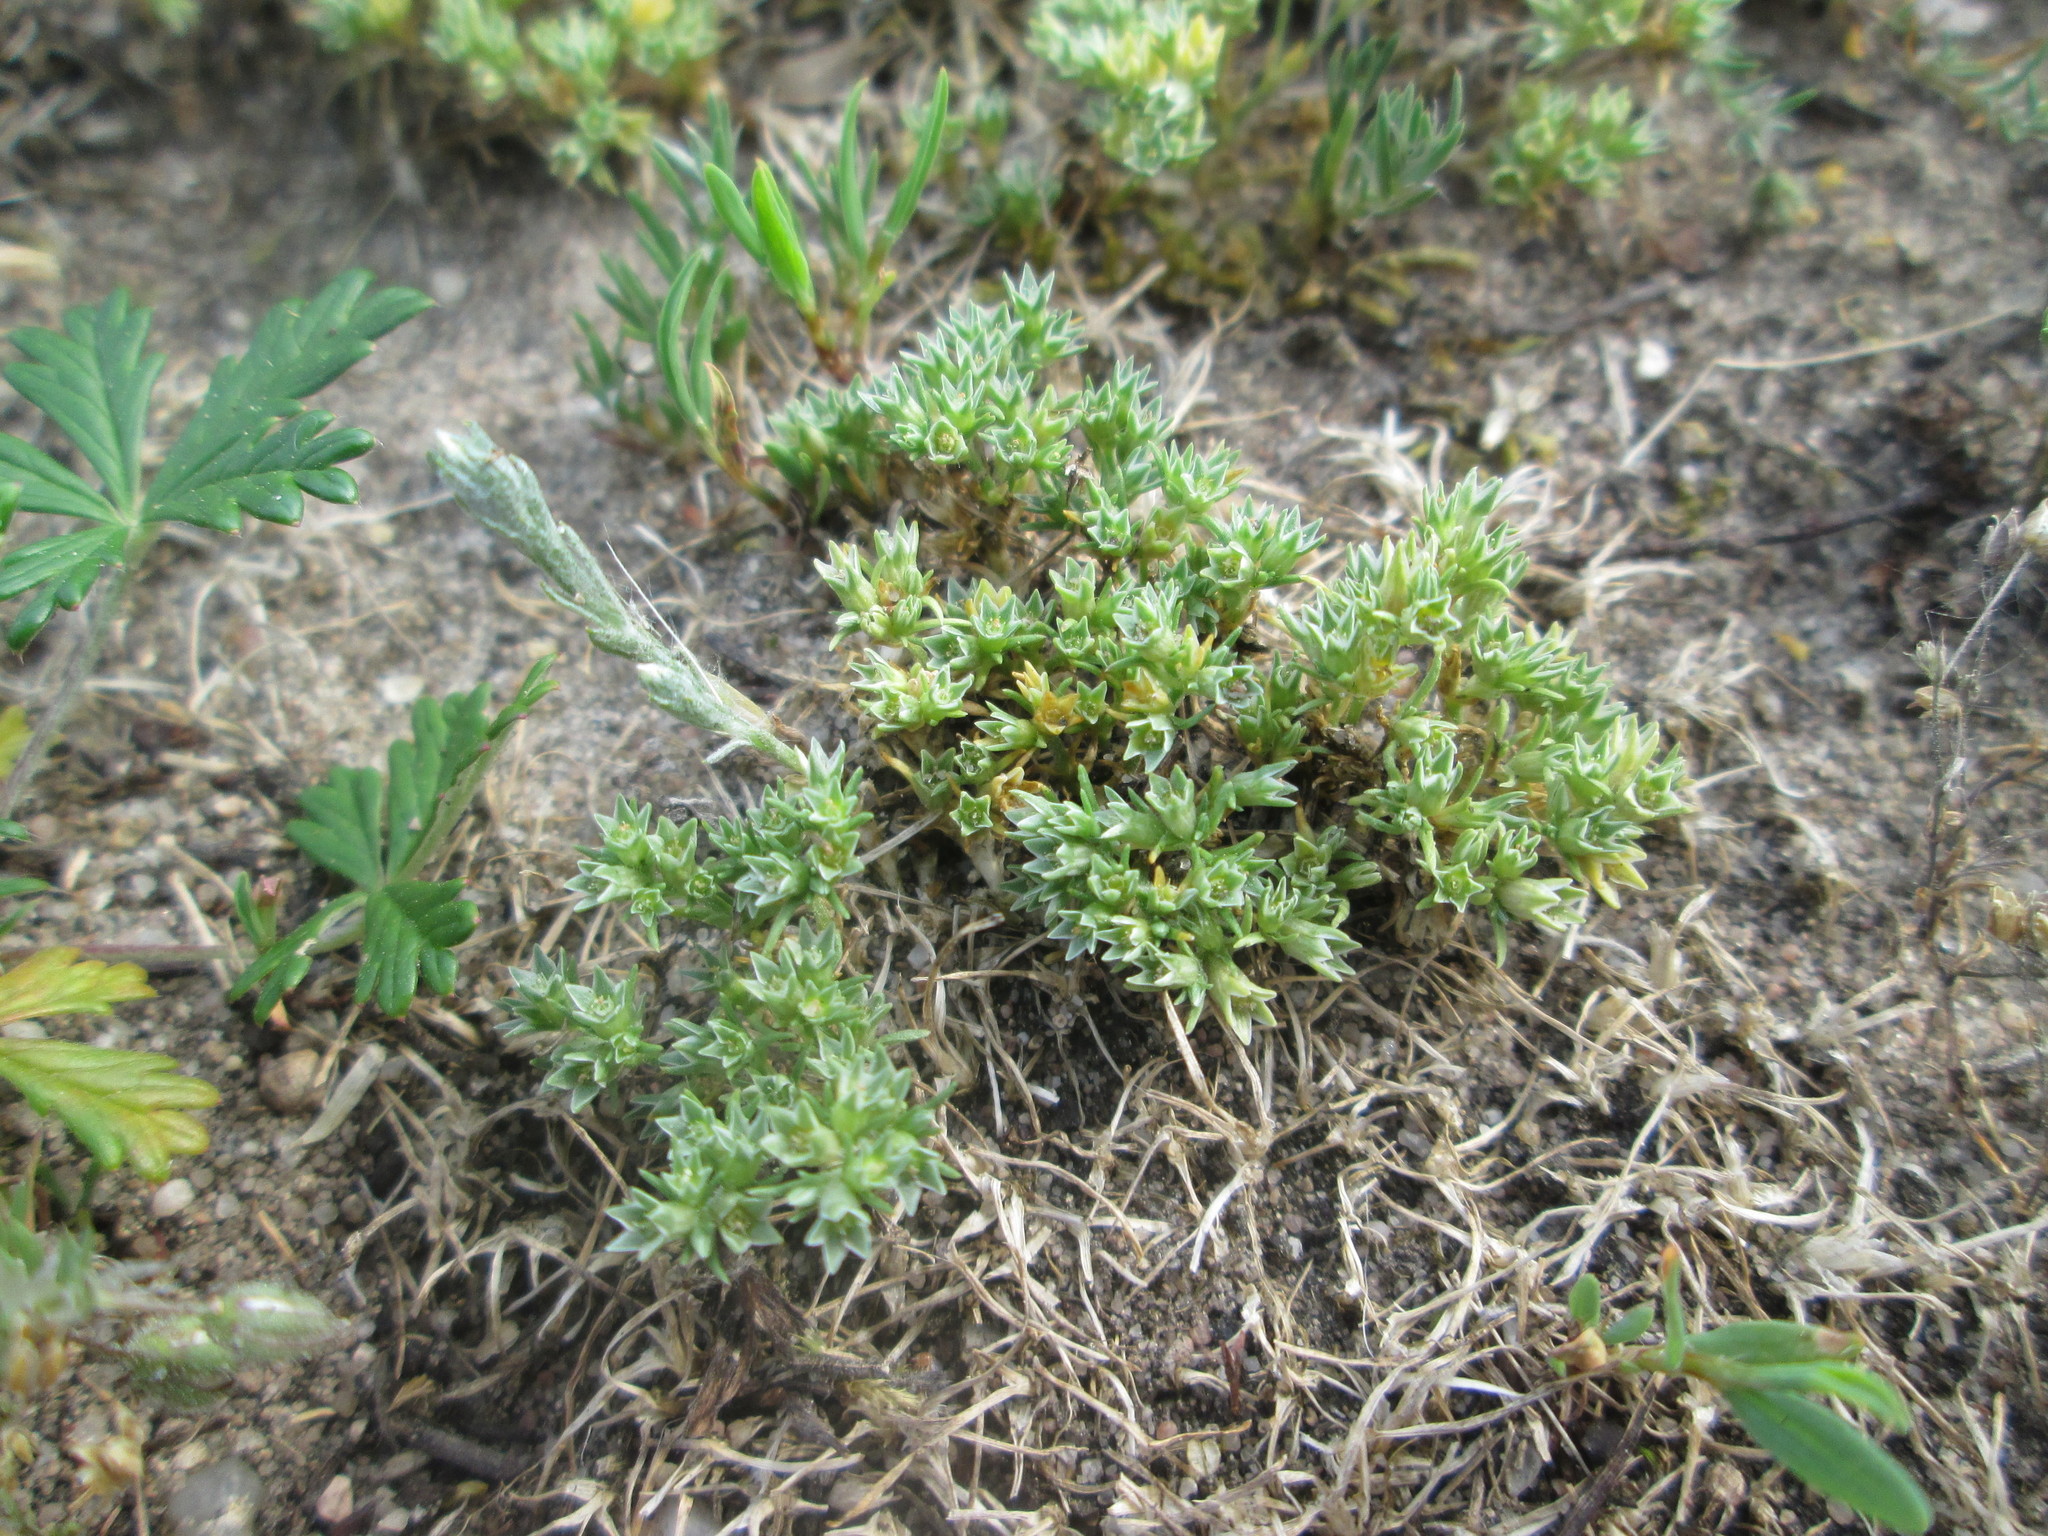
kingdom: Plantae
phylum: Tracheophyta
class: Magnoliopsida
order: Caryophyllales
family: Caryophyllaceae
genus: Scleranthus
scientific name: Scleranthus annuus
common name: Annual knawel
